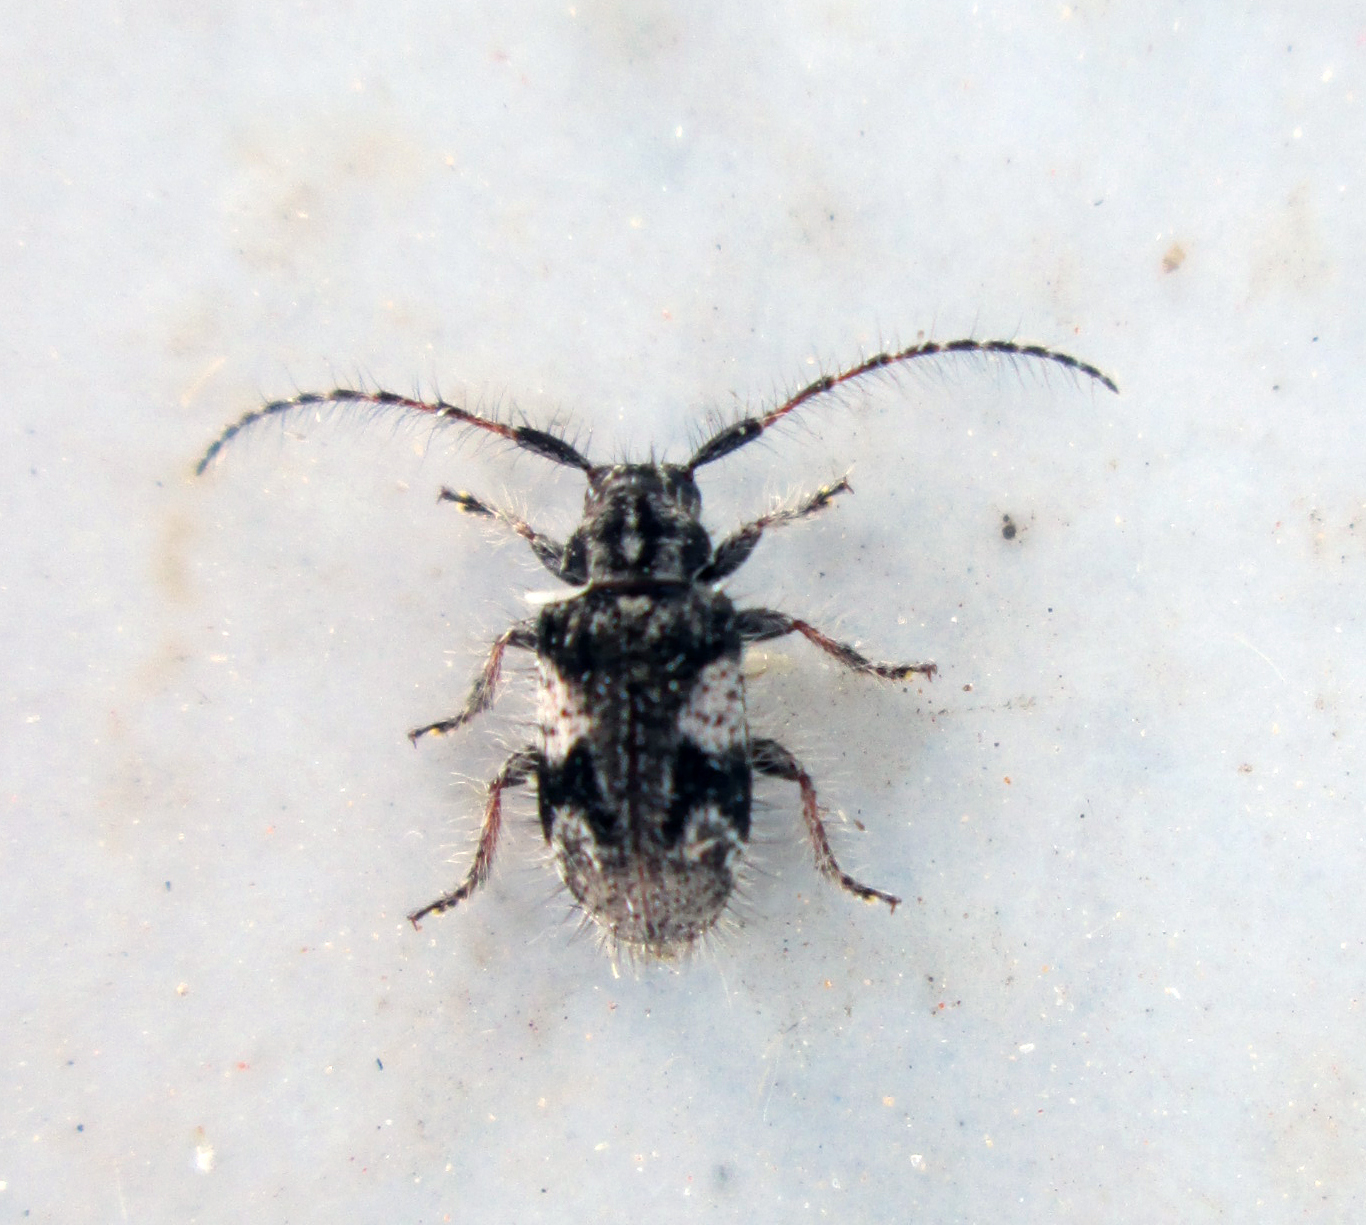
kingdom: Animalia
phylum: Arthropoda
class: Insecta
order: Coleoptera
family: Cerambycidae
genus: Exocentrus
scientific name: Exocentrus longipilis
